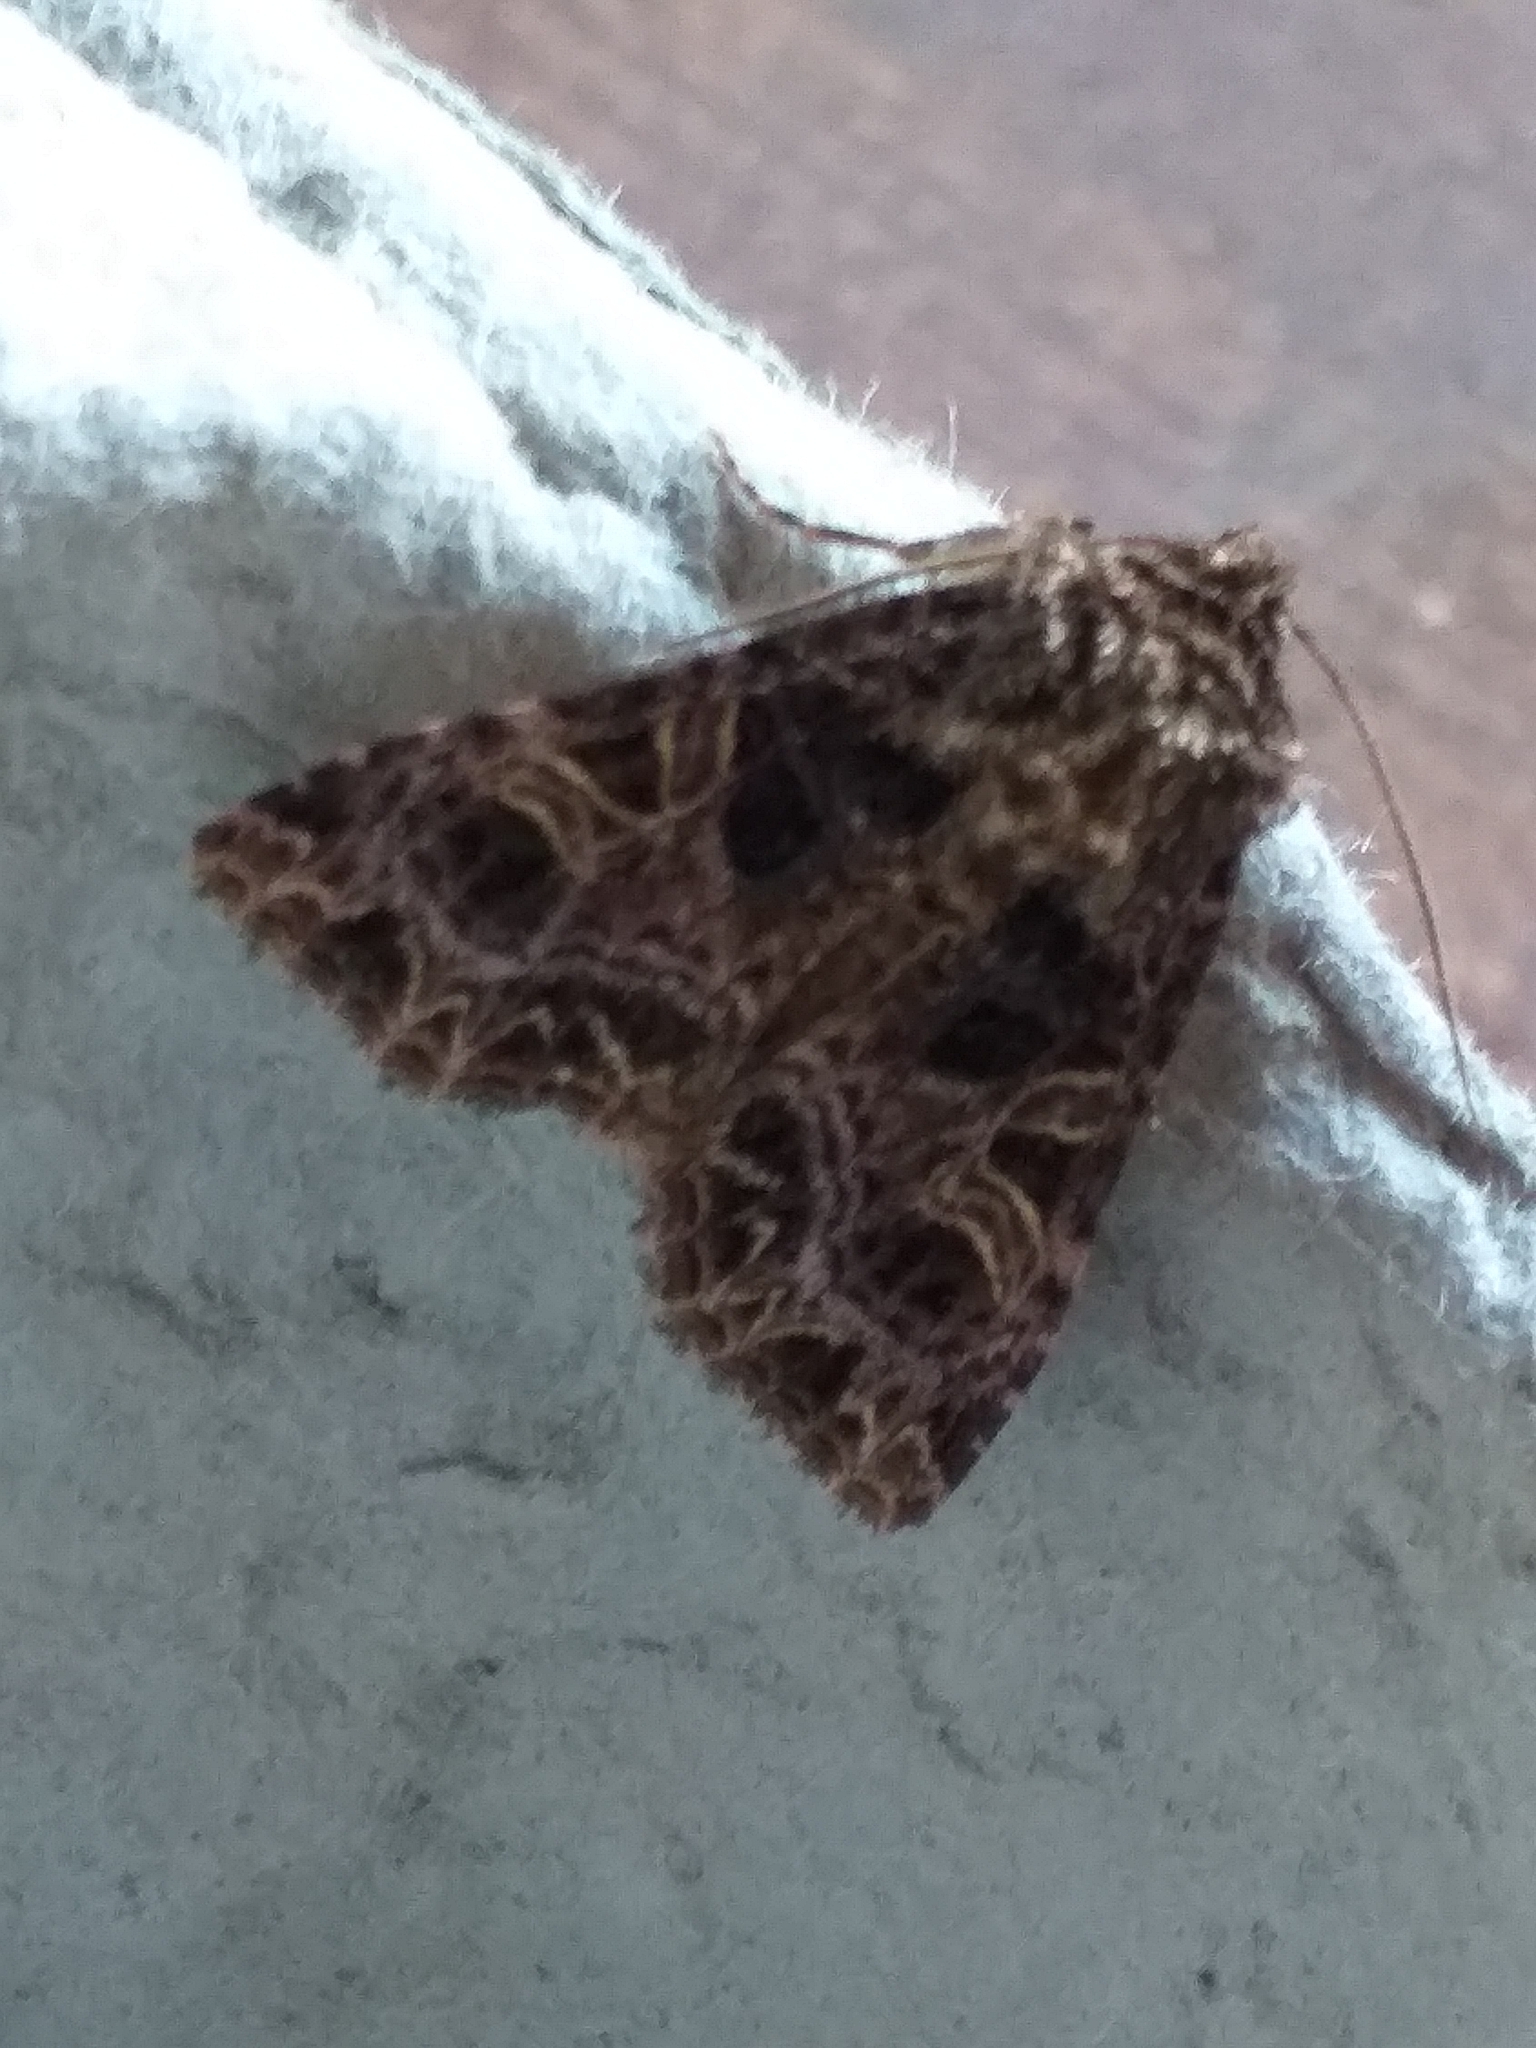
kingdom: Animalia
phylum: Arthropoda
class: Insecta
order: Lepidoptera
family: Noctuidae
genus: Sideridis
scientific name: Sideridis rivularis
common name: Campion
